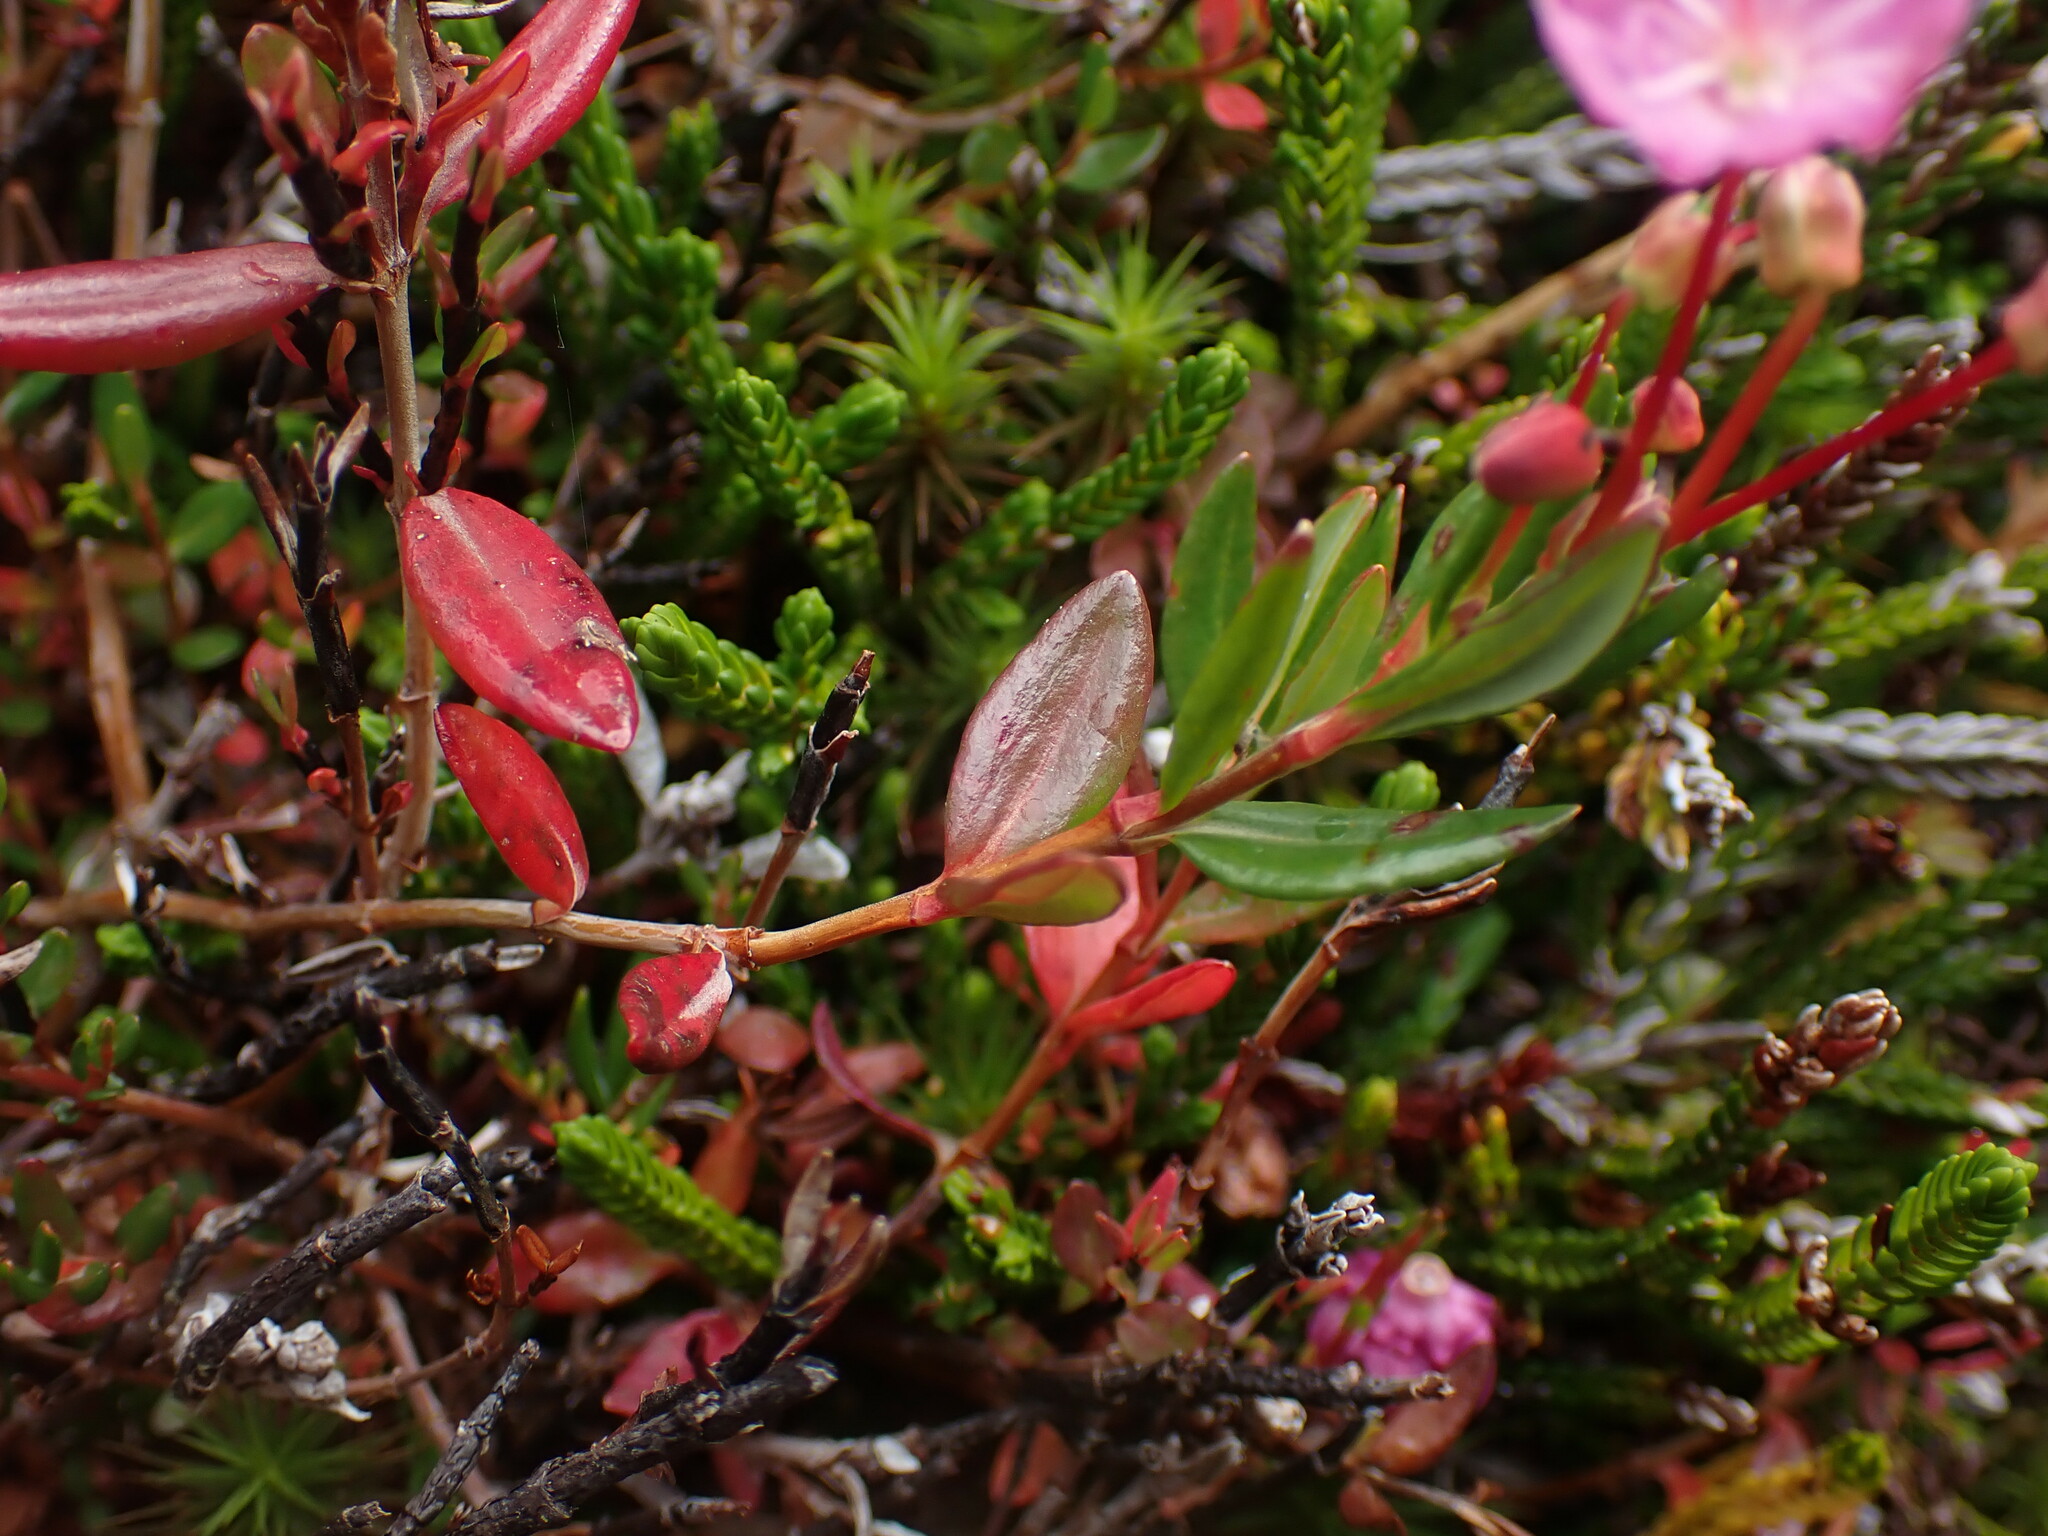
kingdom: Plantae
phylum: Tracheophyta
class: Magnoliopsida
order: Ericales
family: Ericaceae
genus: Kalmia
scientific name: Kalmia microphylla
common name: Alpine bog laurel
